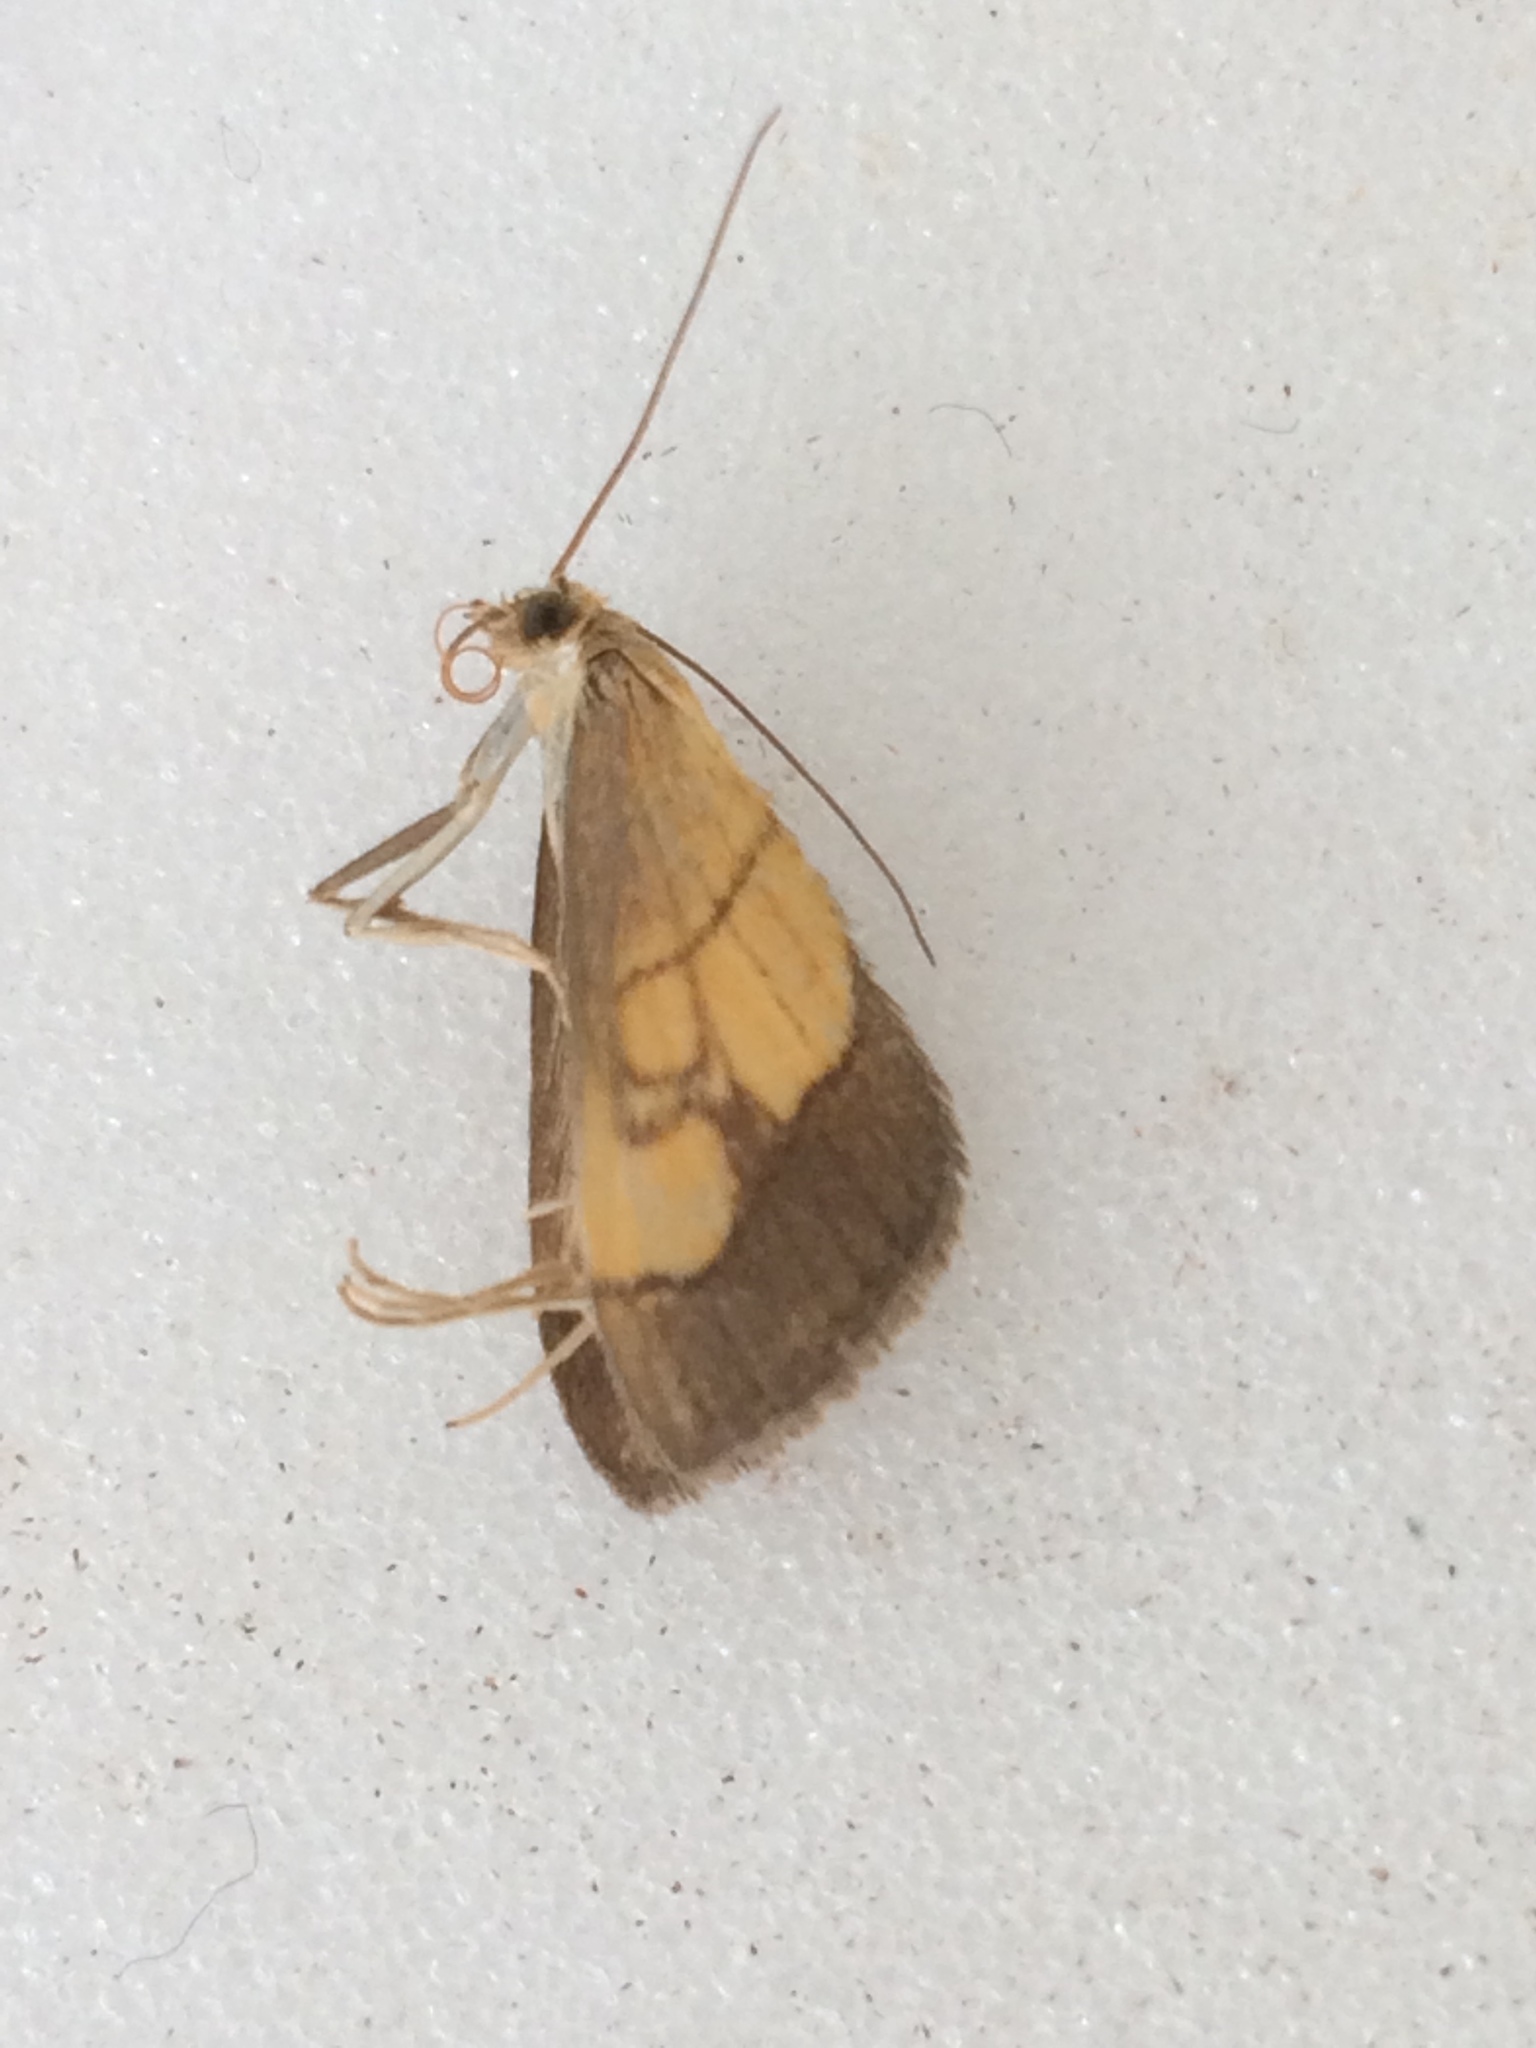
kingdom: Animalia
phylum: Arthropoda
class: Insecta
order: Lepidoptera
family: Crambidae
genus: Evergestis
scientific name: Evergestis limbata
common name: Dark bordered pearl
